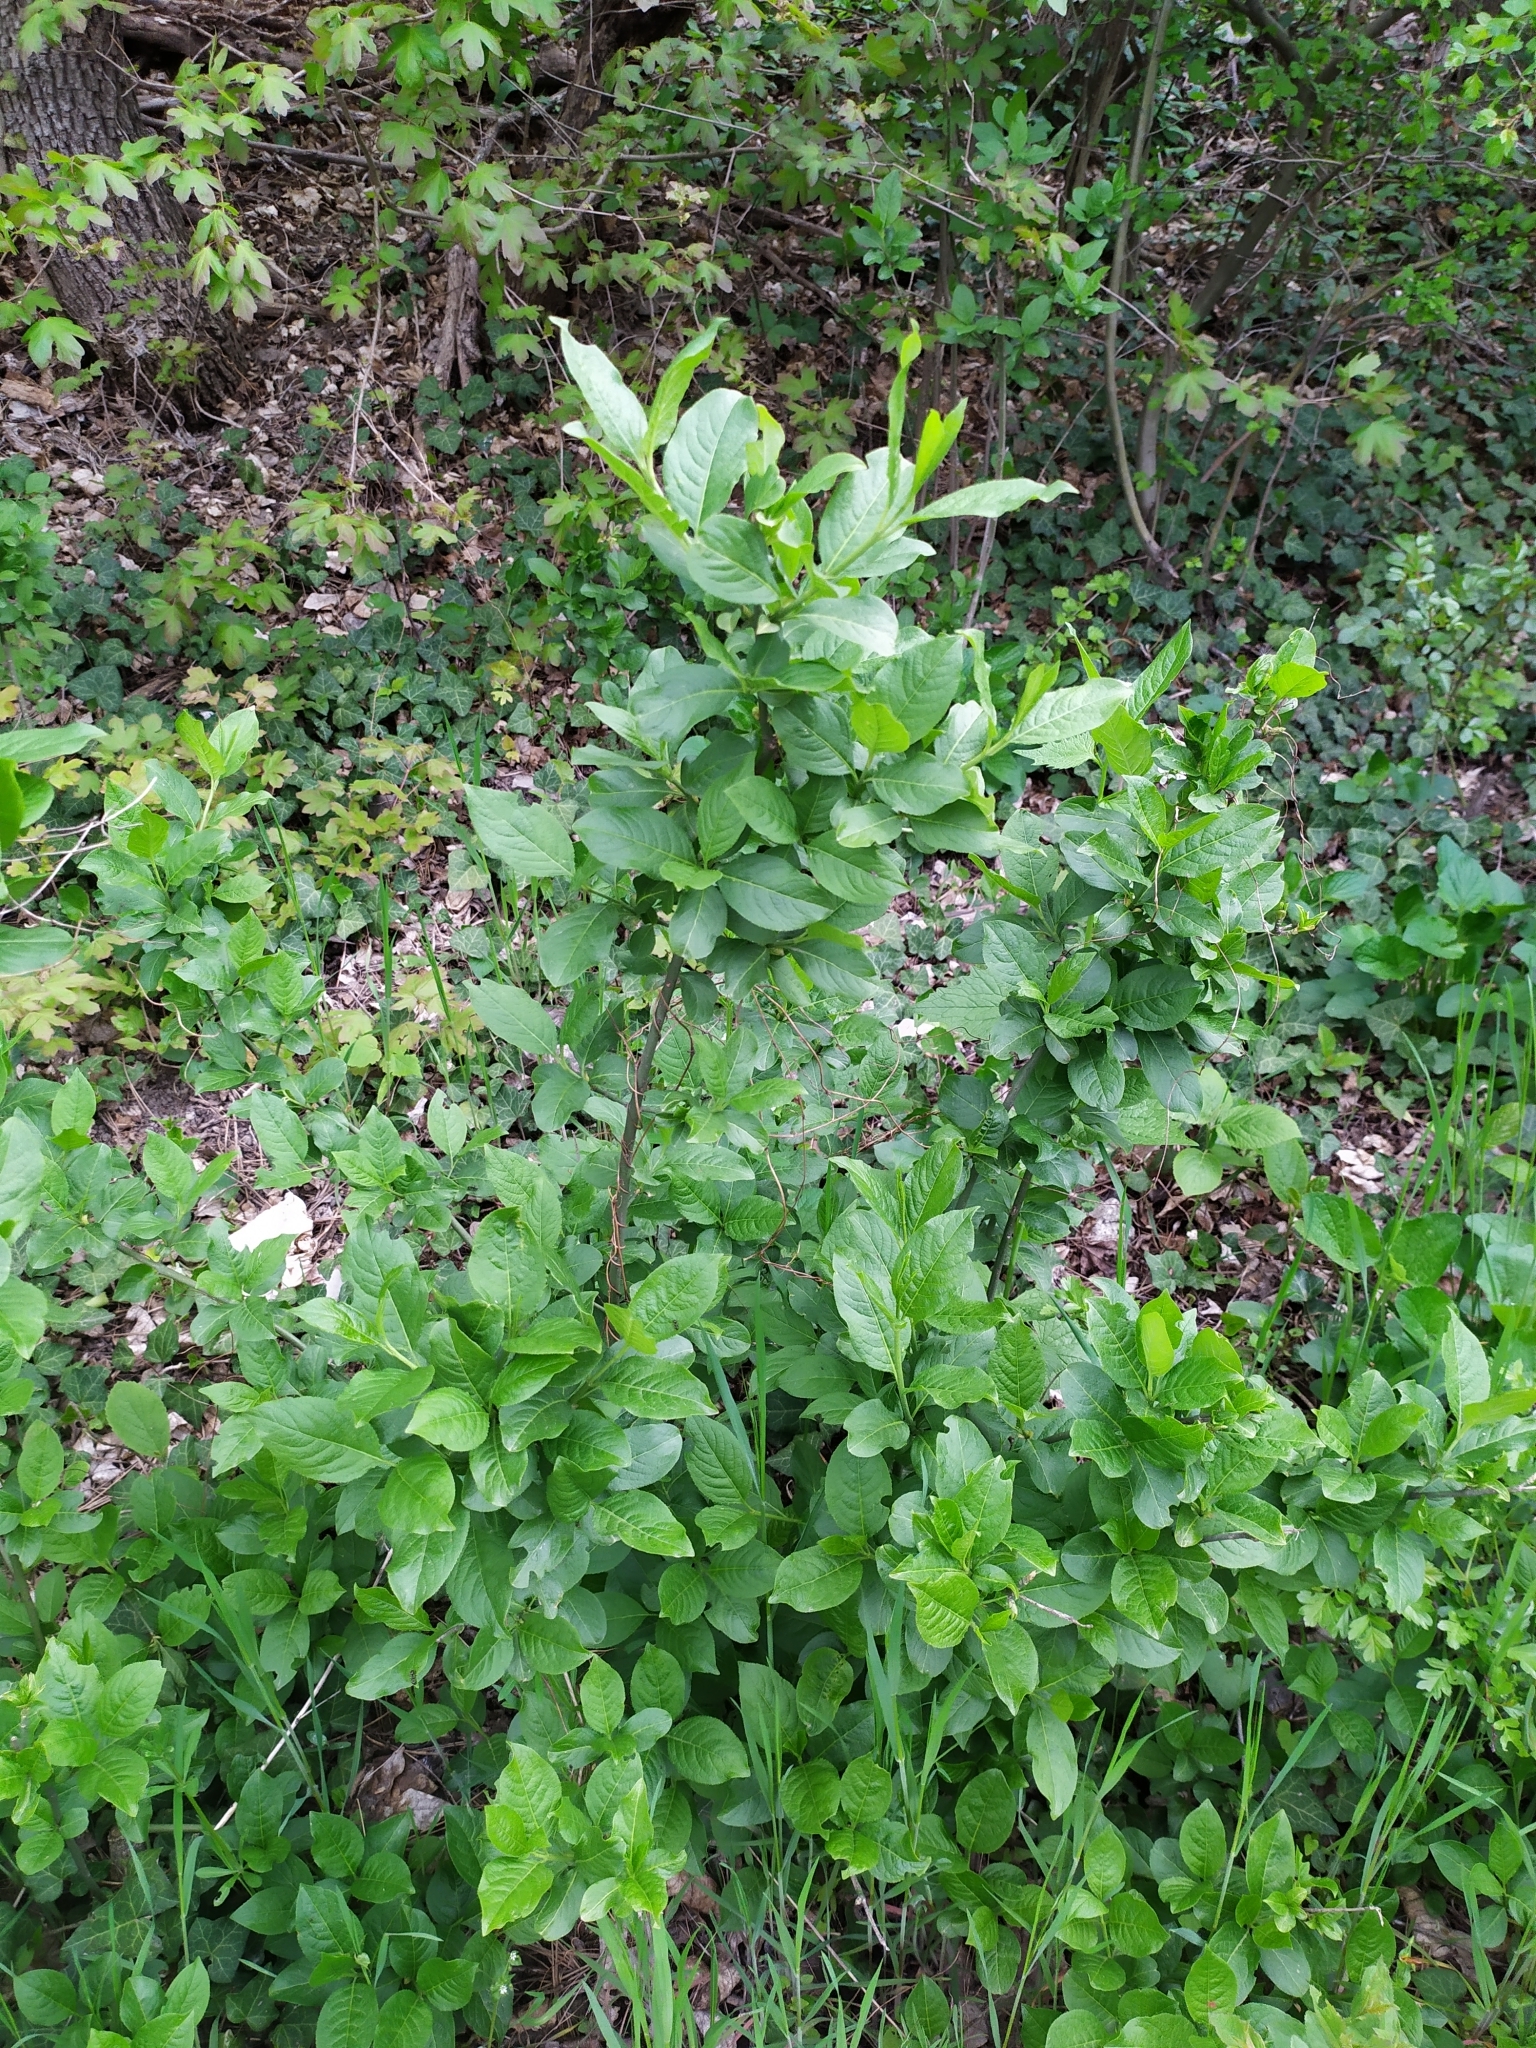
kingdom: Plantae
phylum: Tracheophyta
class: Magnoliopsida
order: Celastrales
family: Celastraceae
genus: Euonymus
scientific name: Euonymus europaeus
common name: Spindle
